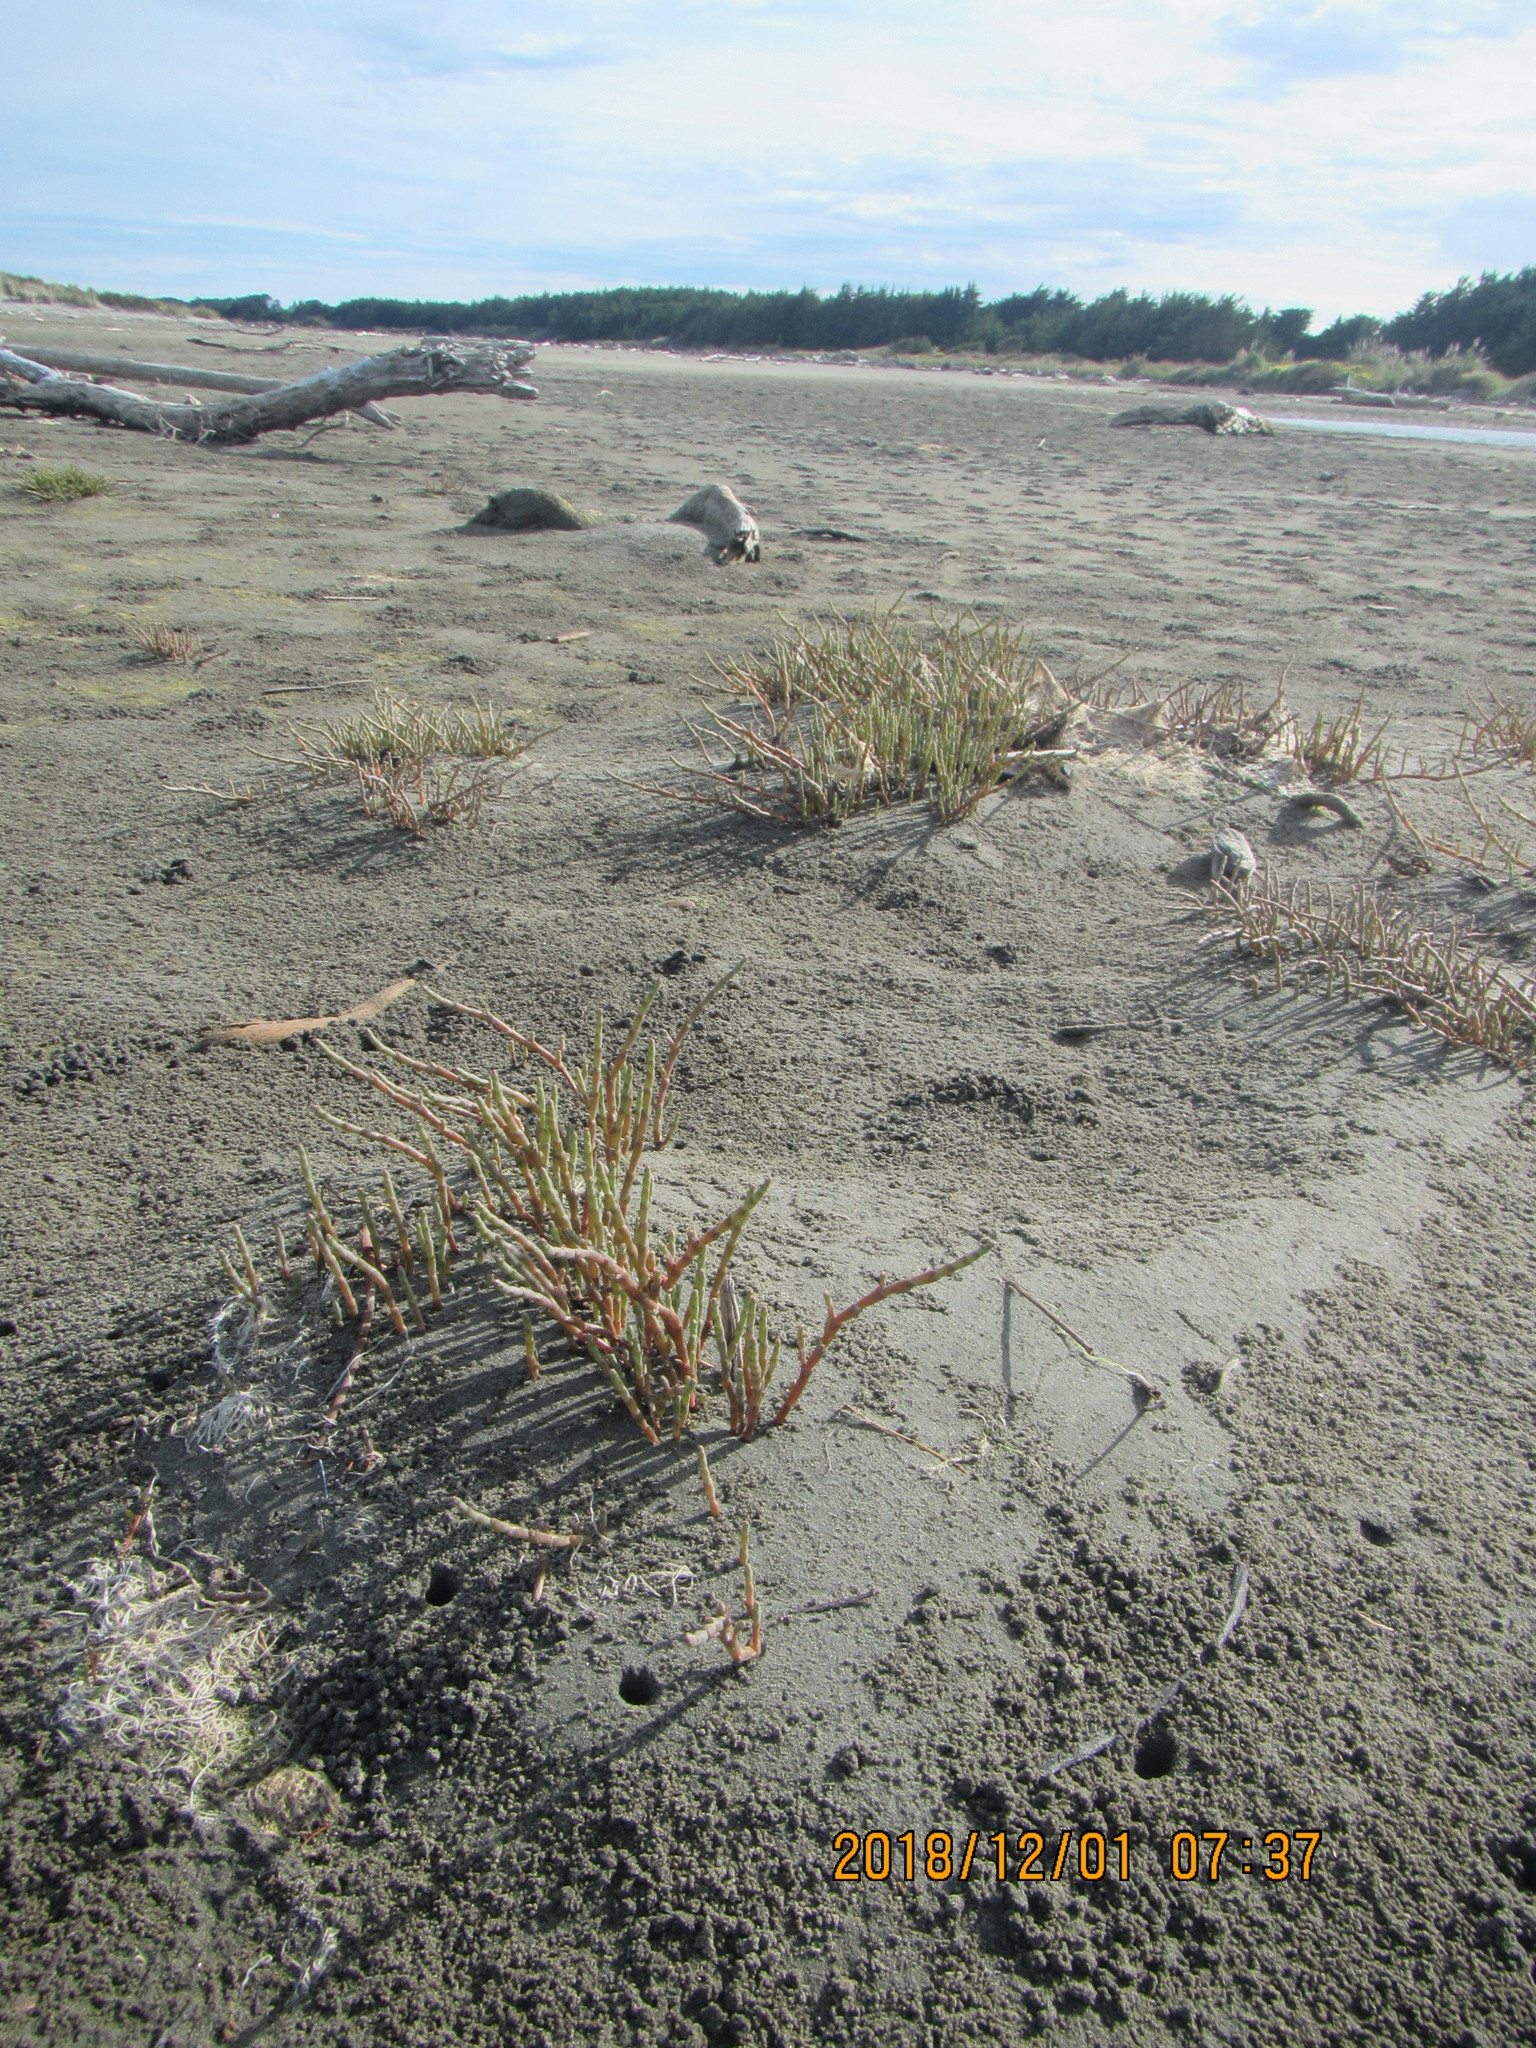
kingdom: Plantae
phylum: Tracheophyta
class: Magnoliopsida
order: Caryophyllales
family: Amaranthaceae
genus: Salicornia
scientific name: Salicornia quinqueflora
